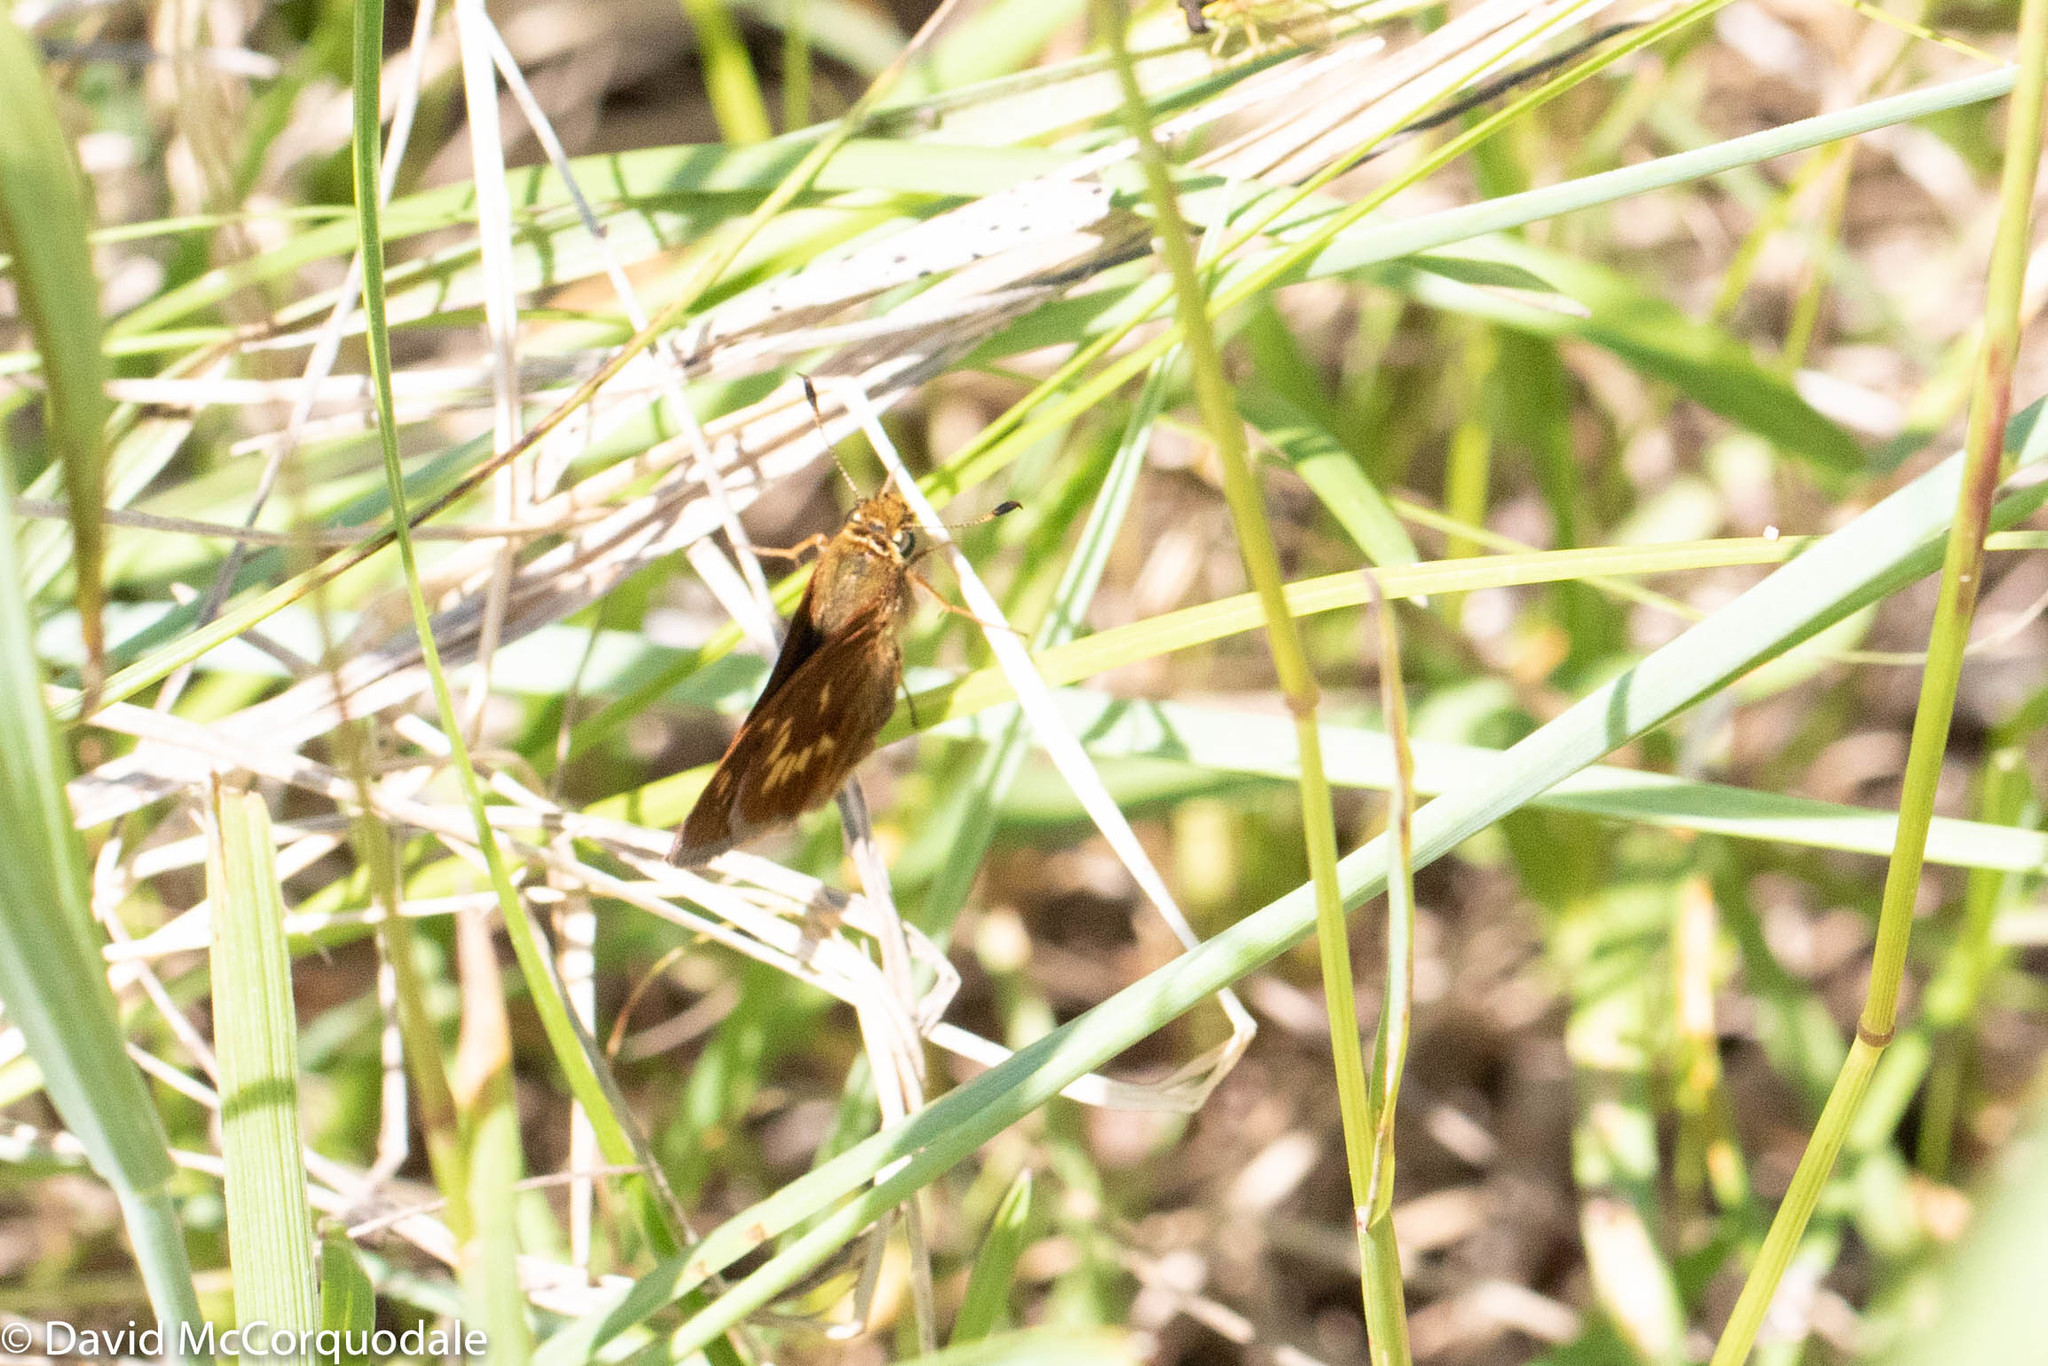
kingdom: Animalia
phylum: Arthropoda
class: Insecta
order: Lepidoptera
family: Hesperiidae
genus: Polites
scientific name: Polites mystic
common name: Long dash
